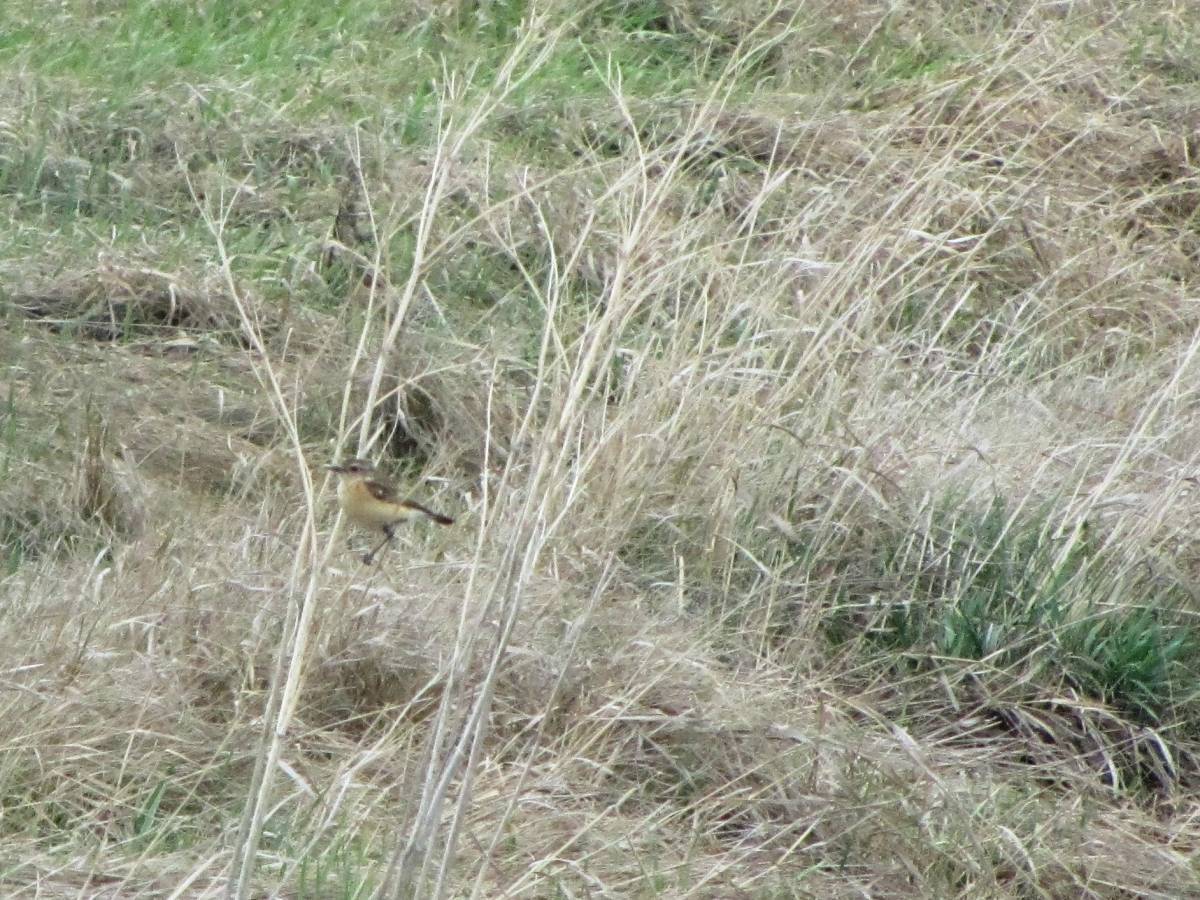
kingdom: Animalia
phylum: Chordata
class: Aves
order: Passeriformes
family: Muscicapidae
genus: Saxicola
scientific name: Saxicola maurus
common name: Siberian stonechat
